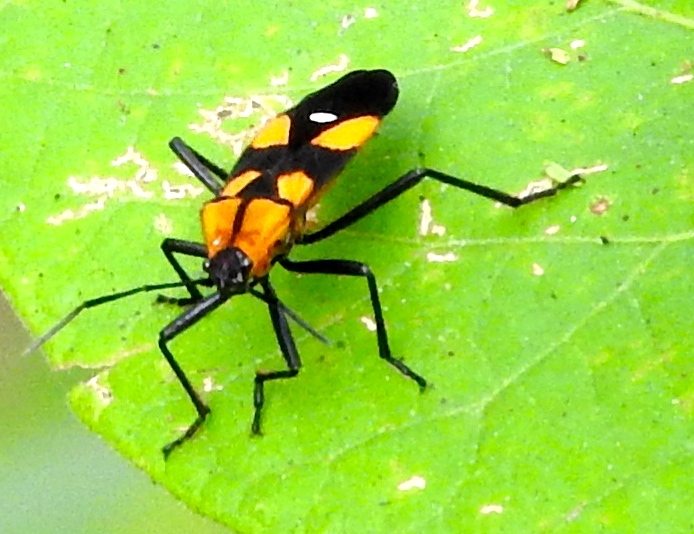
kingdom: Animalia
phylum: Arthropoda
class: Insecta
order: Hemiptera
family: Lygaeidae
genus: Oncopeltus
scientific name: Oncopeltus sexmaculatus
